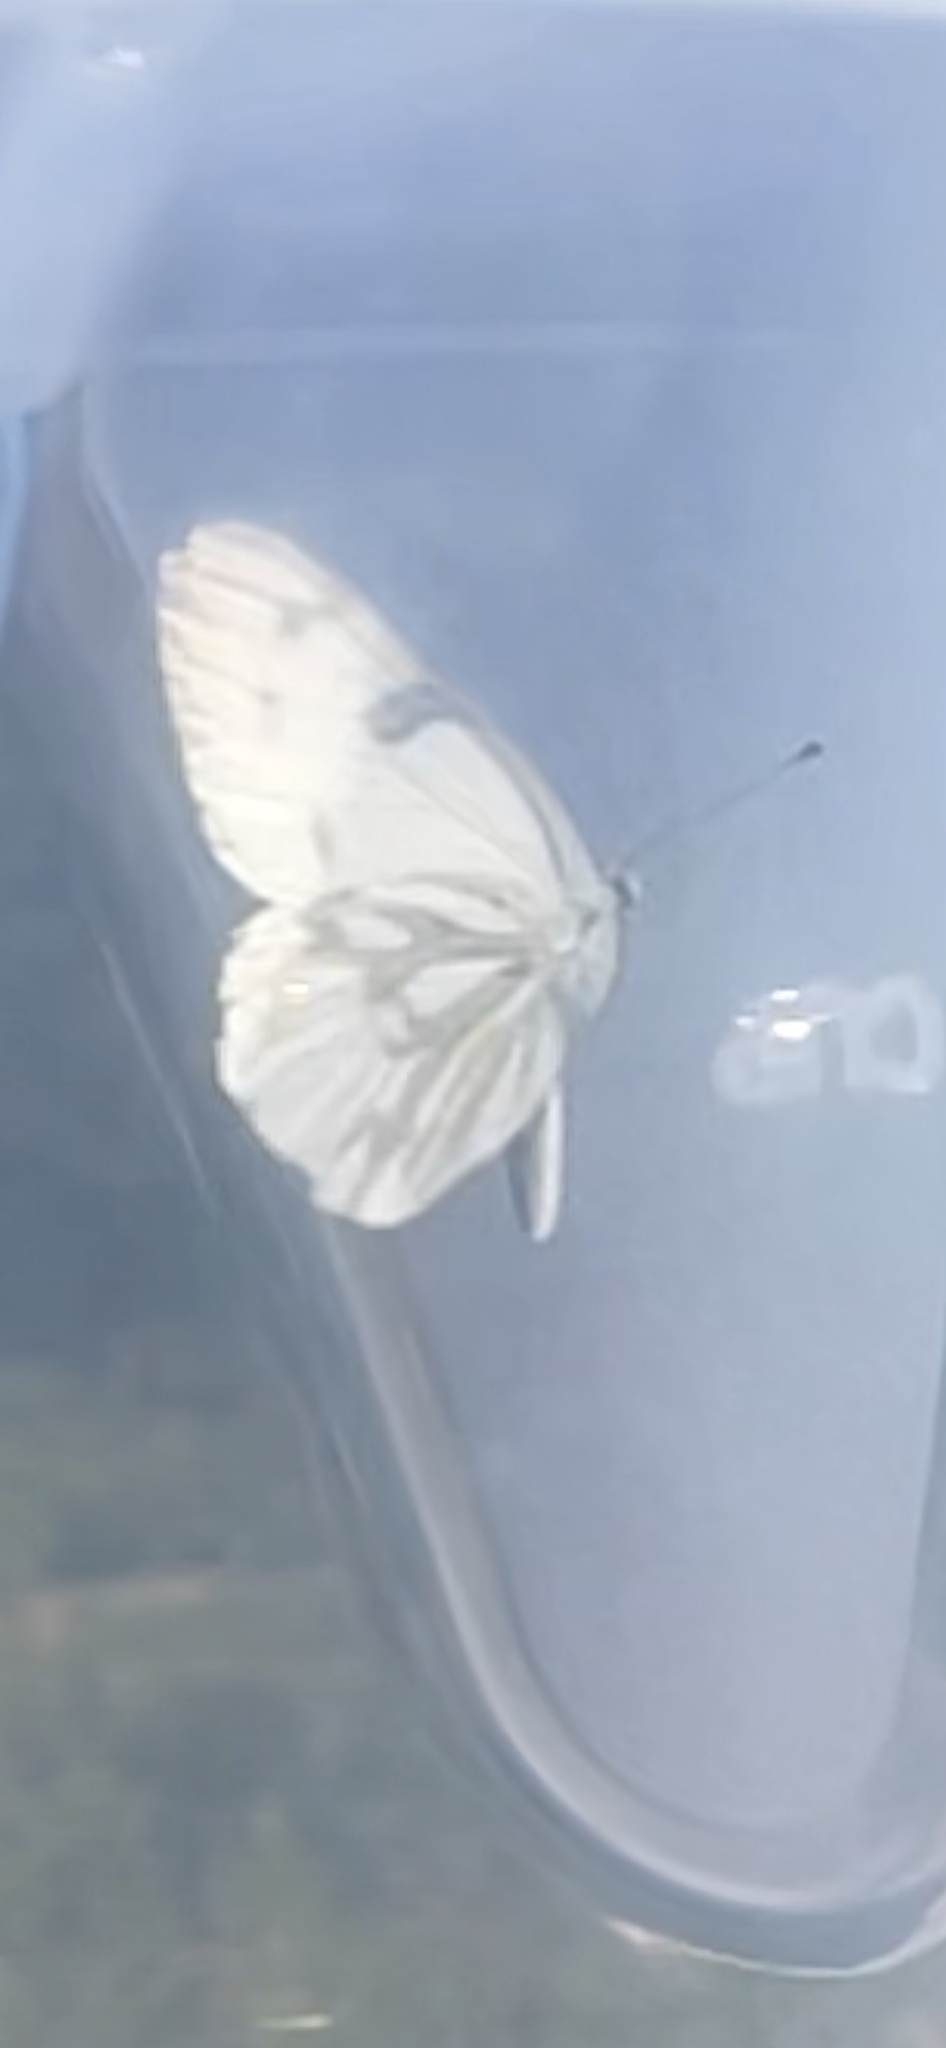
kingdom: Animalia
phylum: Arthropoda
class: Insecta
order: Lepidoptera
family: Pieridae
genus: Pontia
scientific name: Pontia occidentalis
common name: Western white
